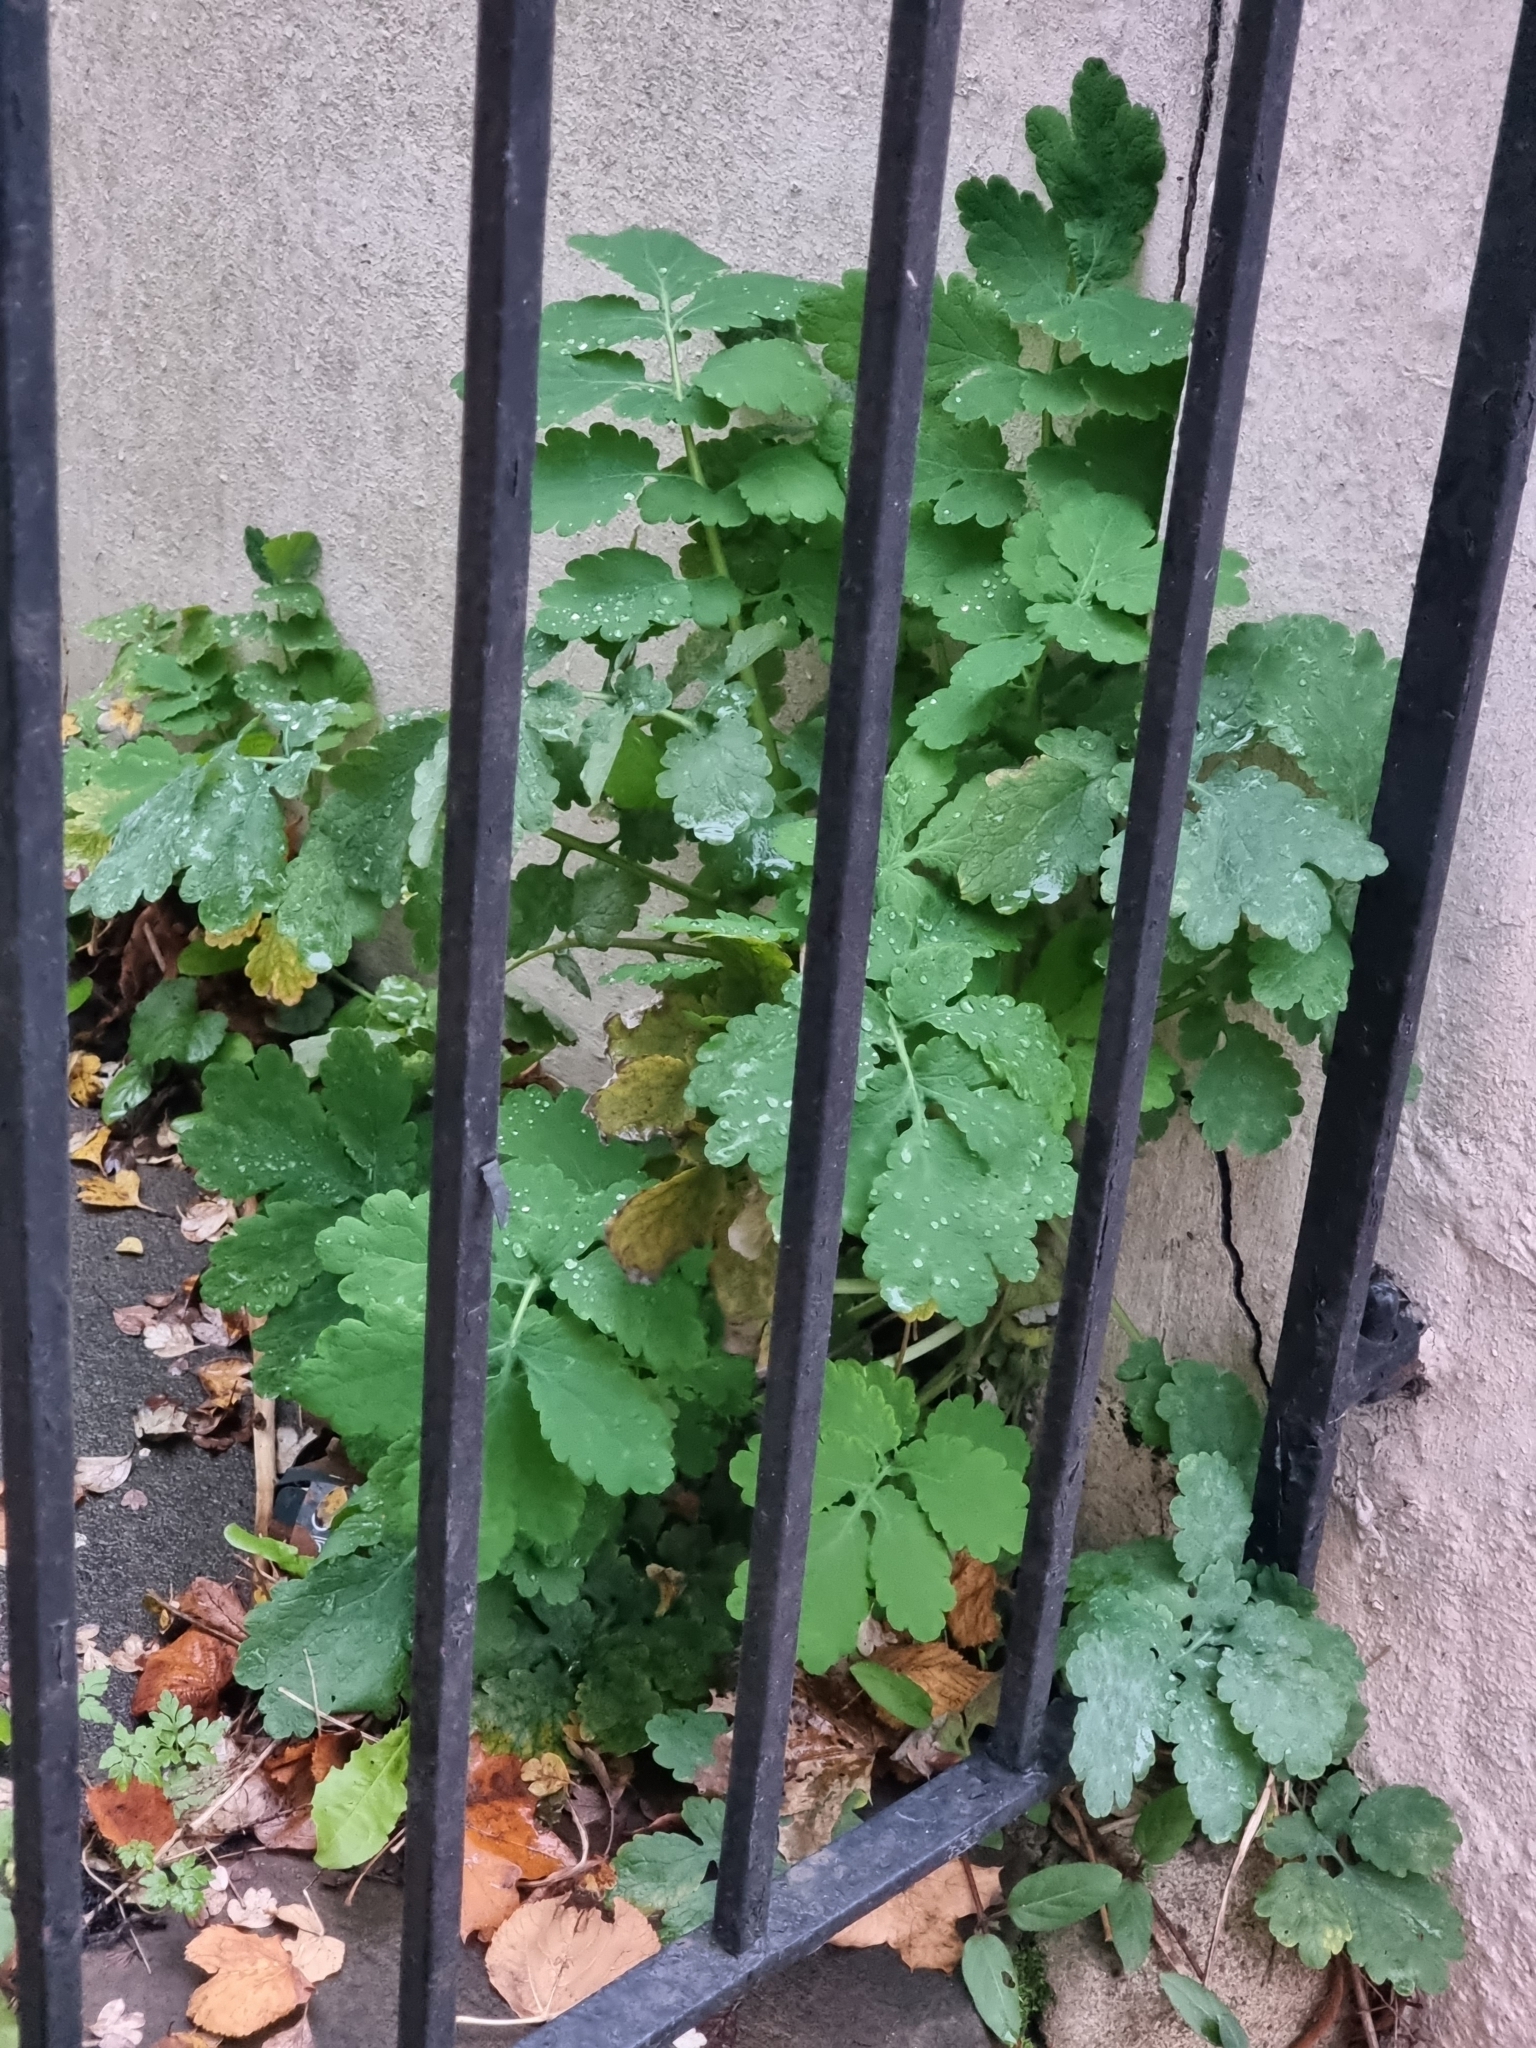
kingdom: Plantae
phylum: Tracheophyta
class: Magnoliopsida
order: Ranunculales
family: Papaveraceae
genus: Chelidonium
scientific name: Chelidonium majus
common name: Greater celandine
